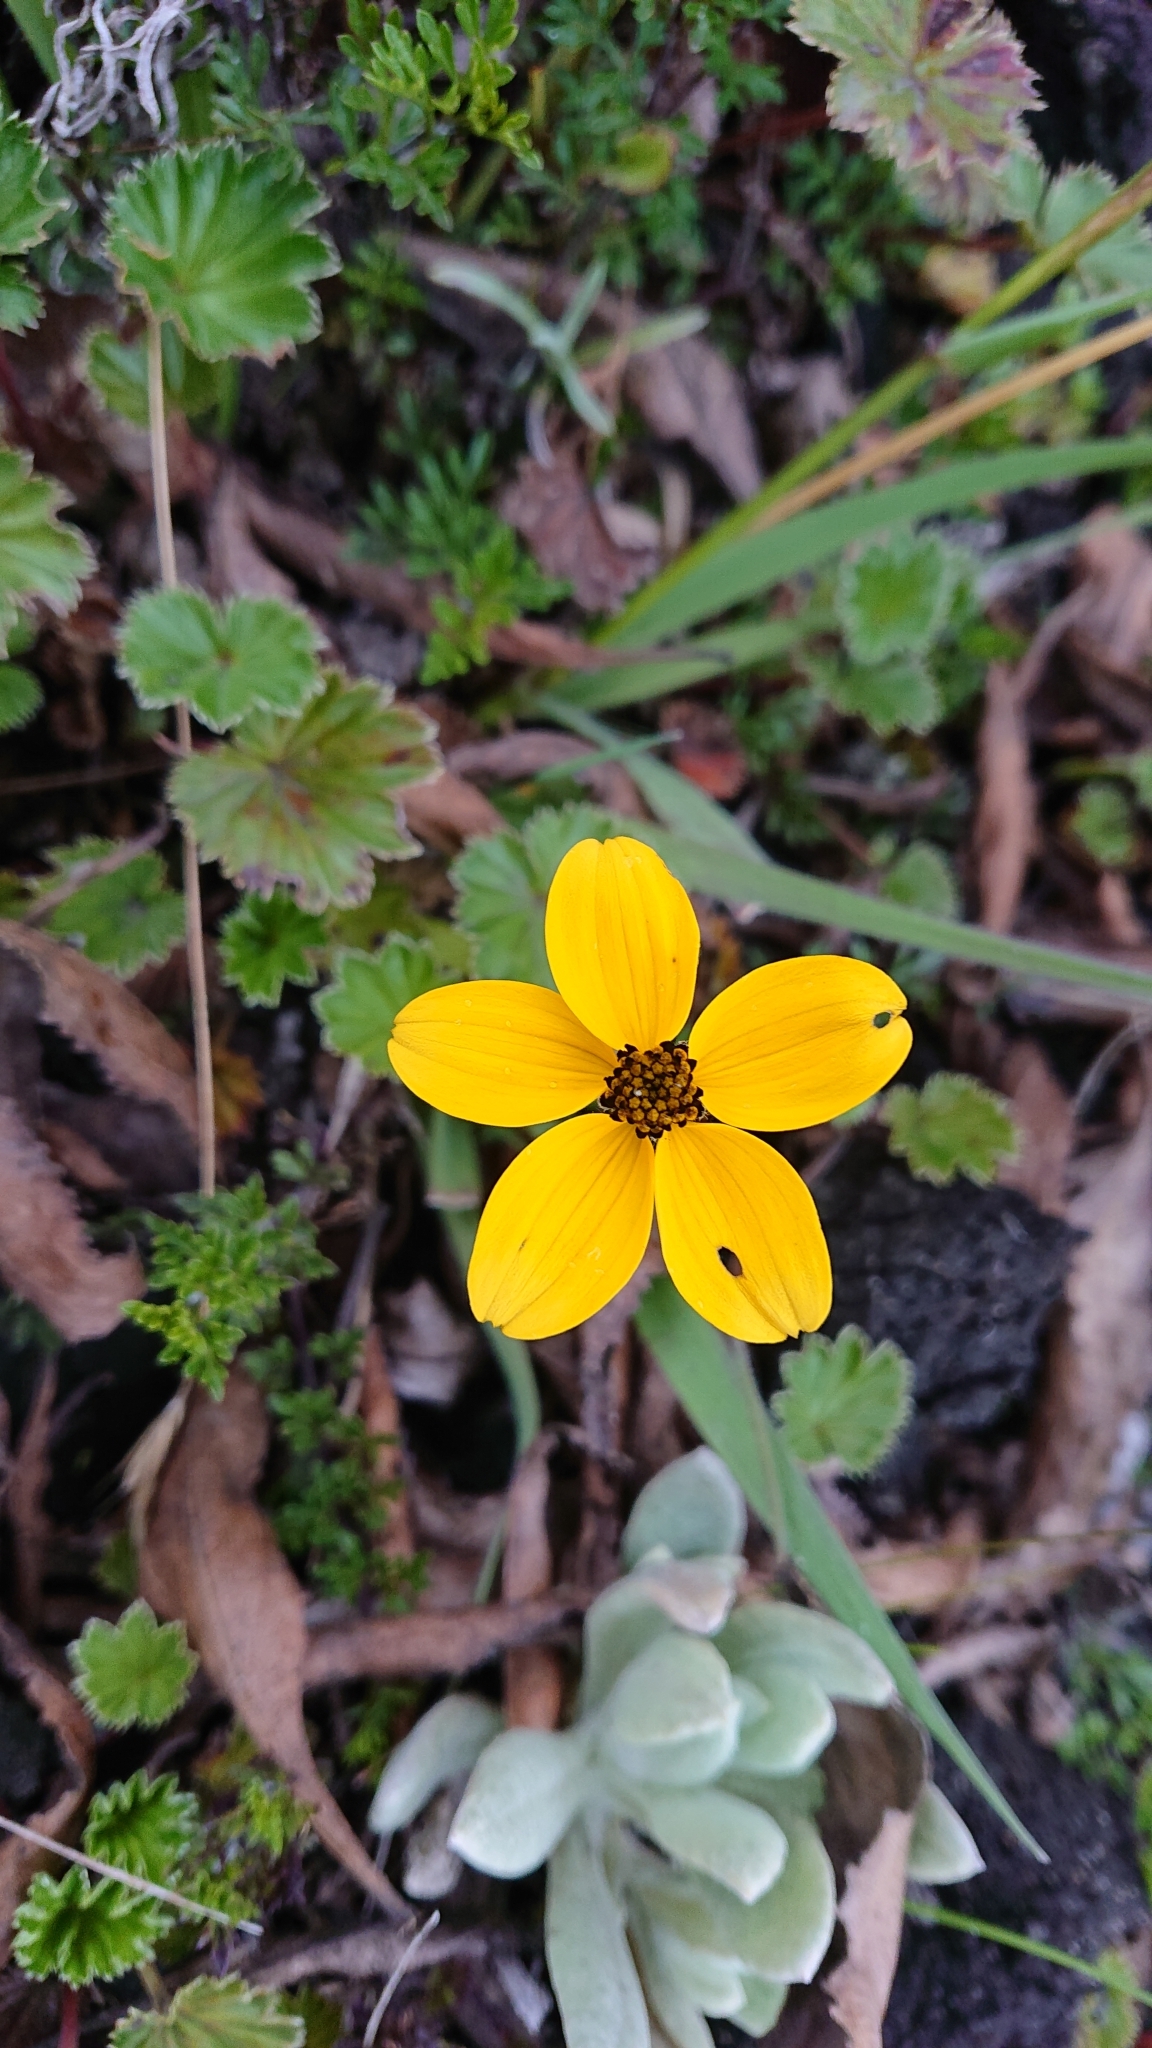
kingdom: Plantae
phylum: Tracheophyta
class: Magnoliopsida
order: Asterales
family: Asteraceae
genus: Bidens
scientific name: Bidens andicola
